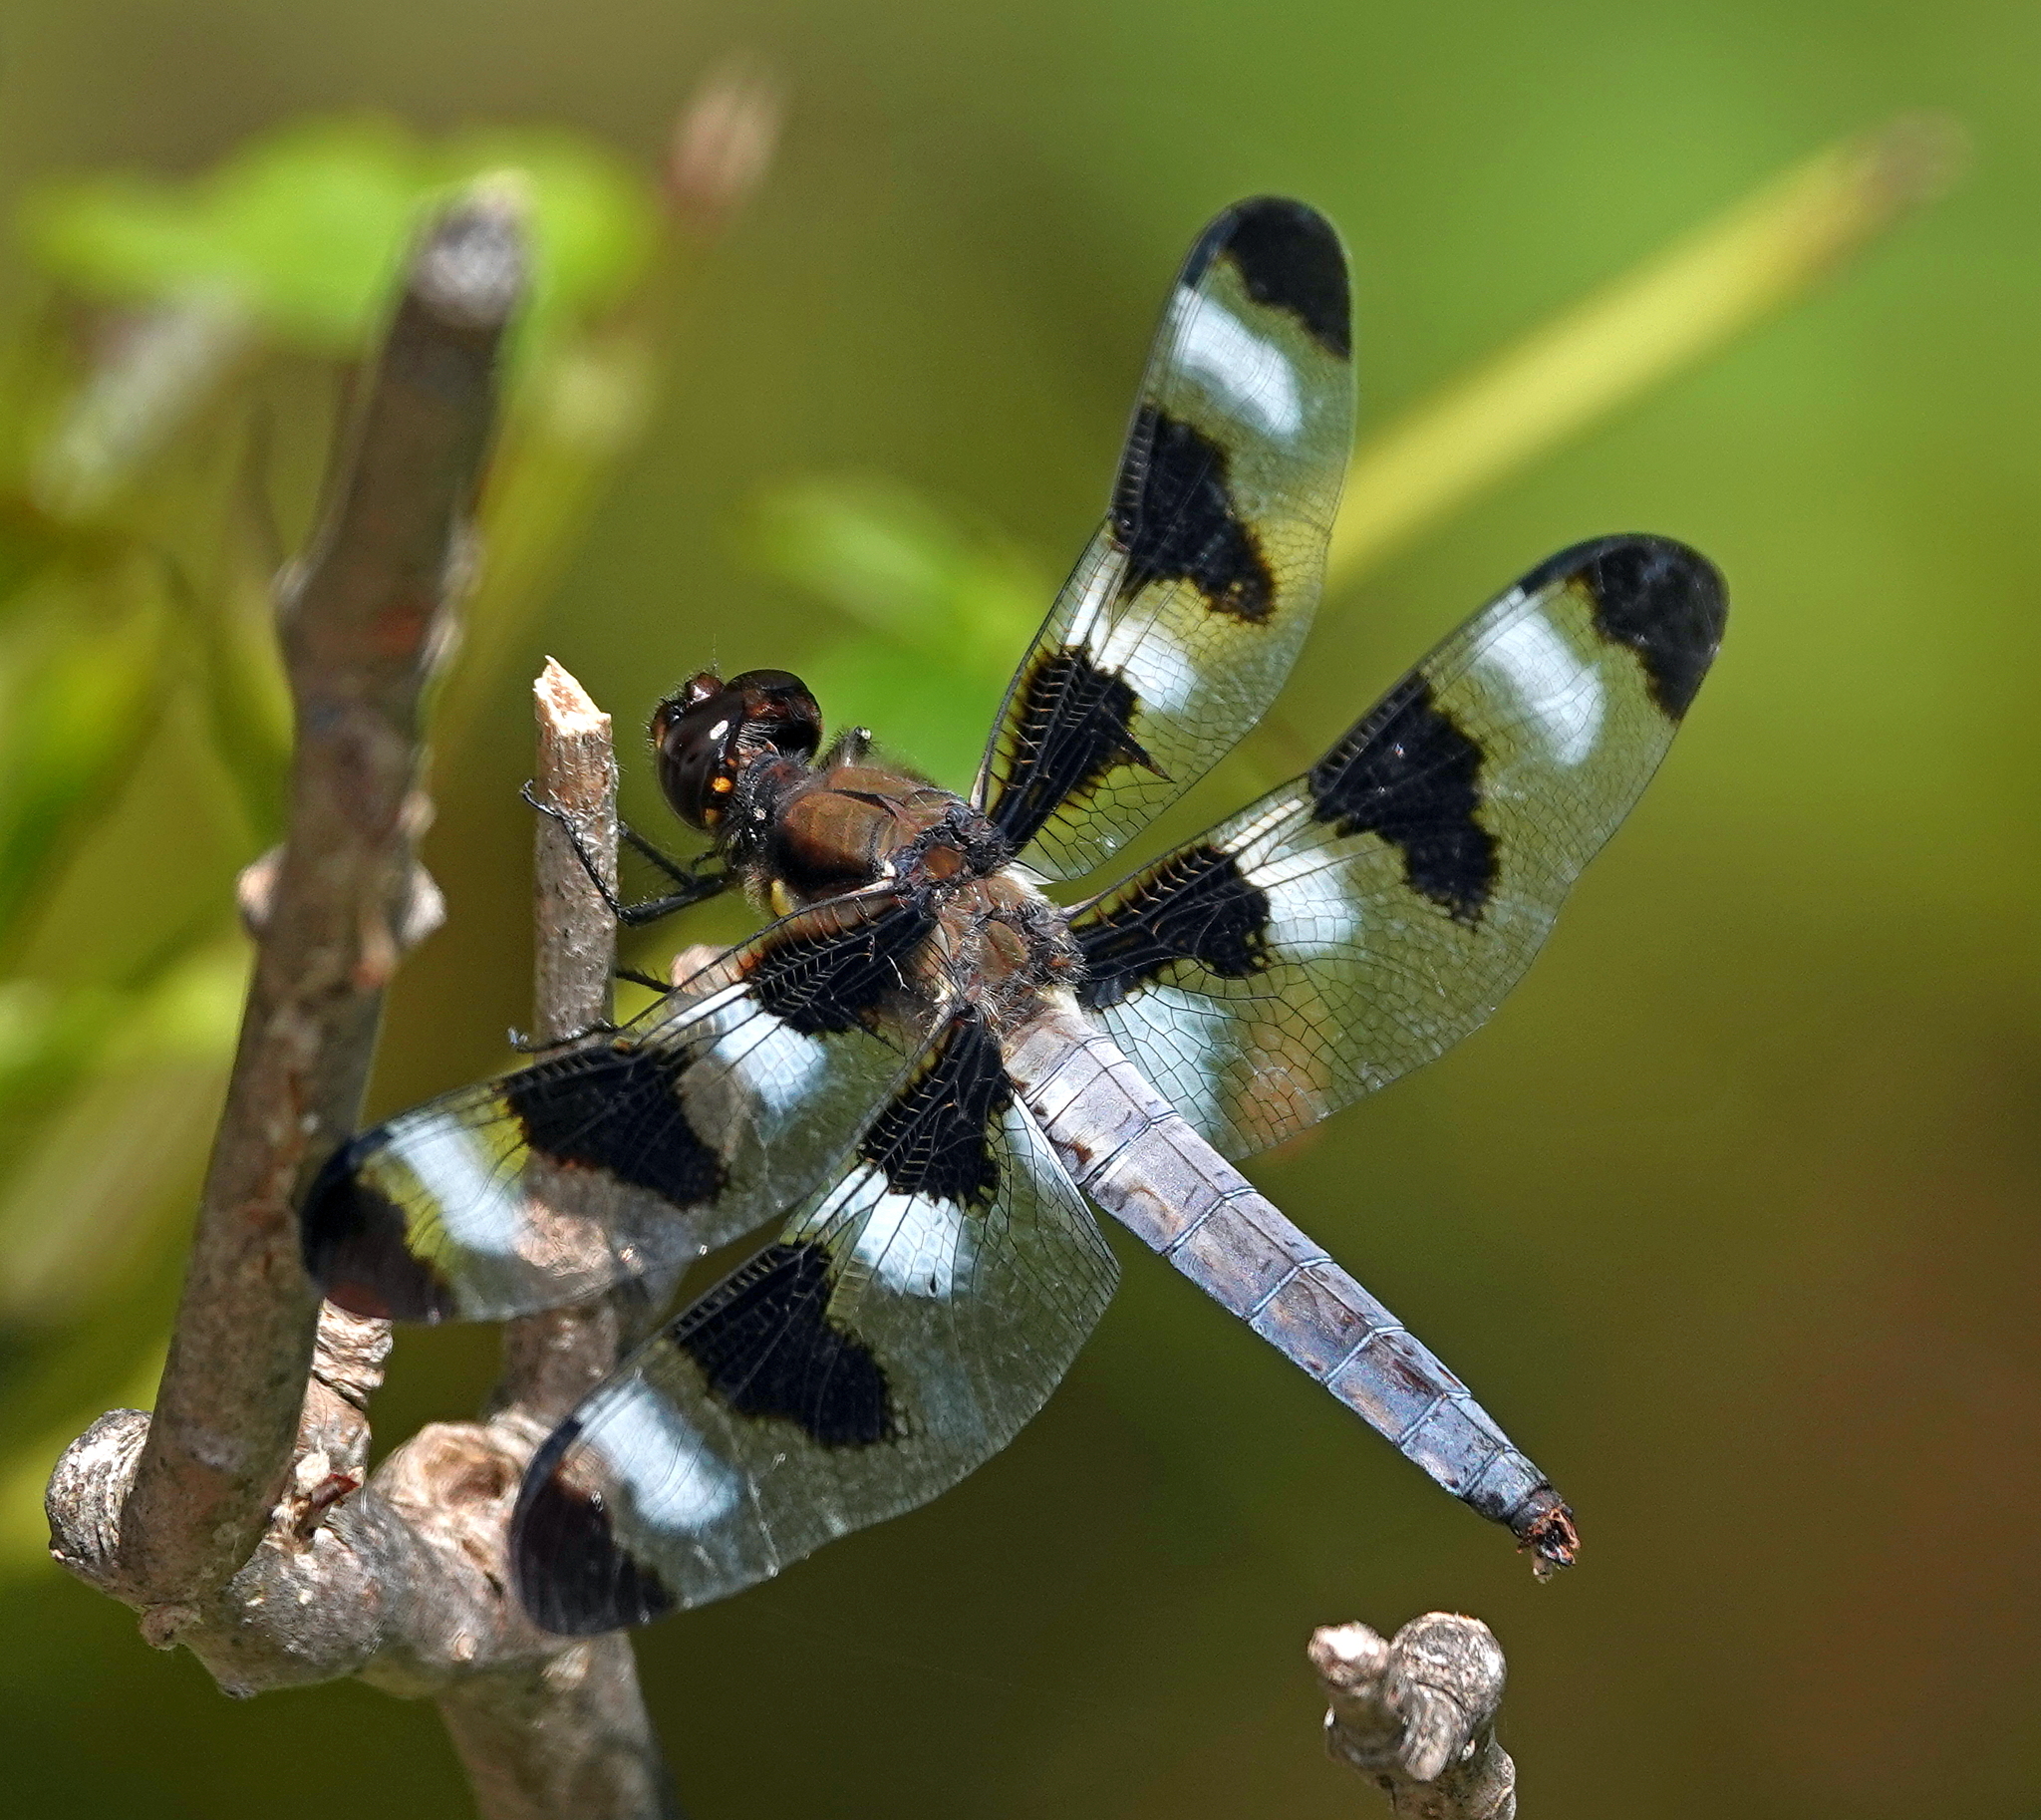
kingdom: Animalia
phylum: Arthropoda
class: Insecta
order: Odonata
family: Libellulidae
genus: Libellula
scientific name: Libellula pulchella
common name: Twelve-spotted skimmer
